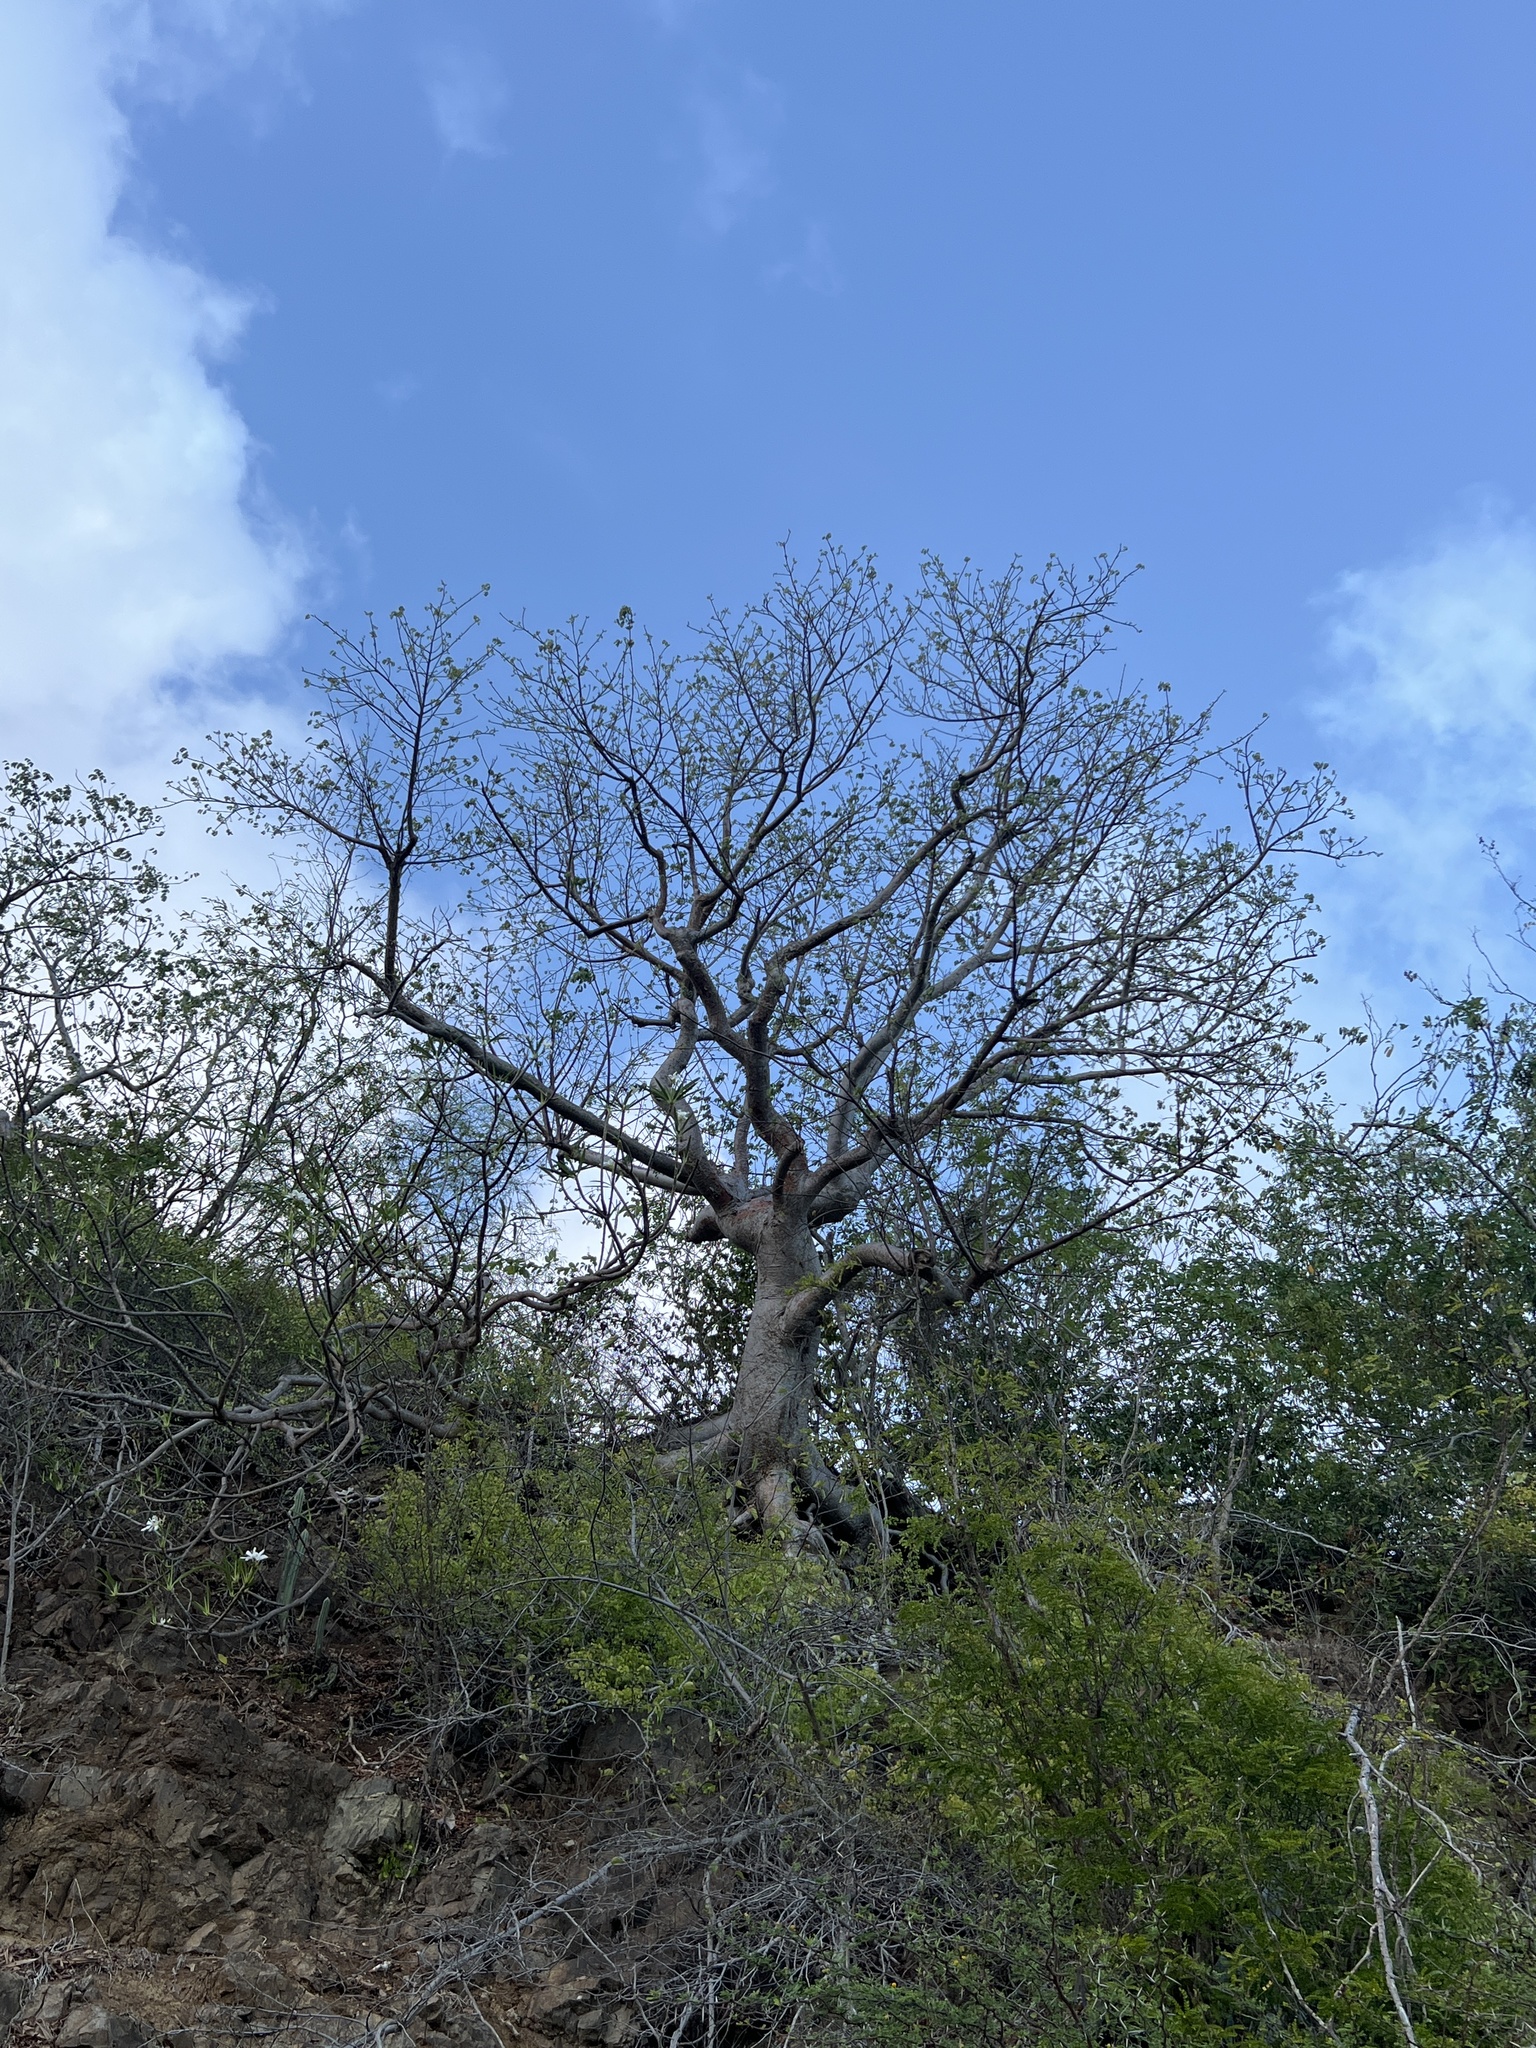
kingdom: Plantae
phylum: Tracheophyta
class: Magnoliopsida
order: Sapindales
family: Burseraceae
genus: Bursera
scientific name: Bursera simaruba
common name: Turpentine tree
